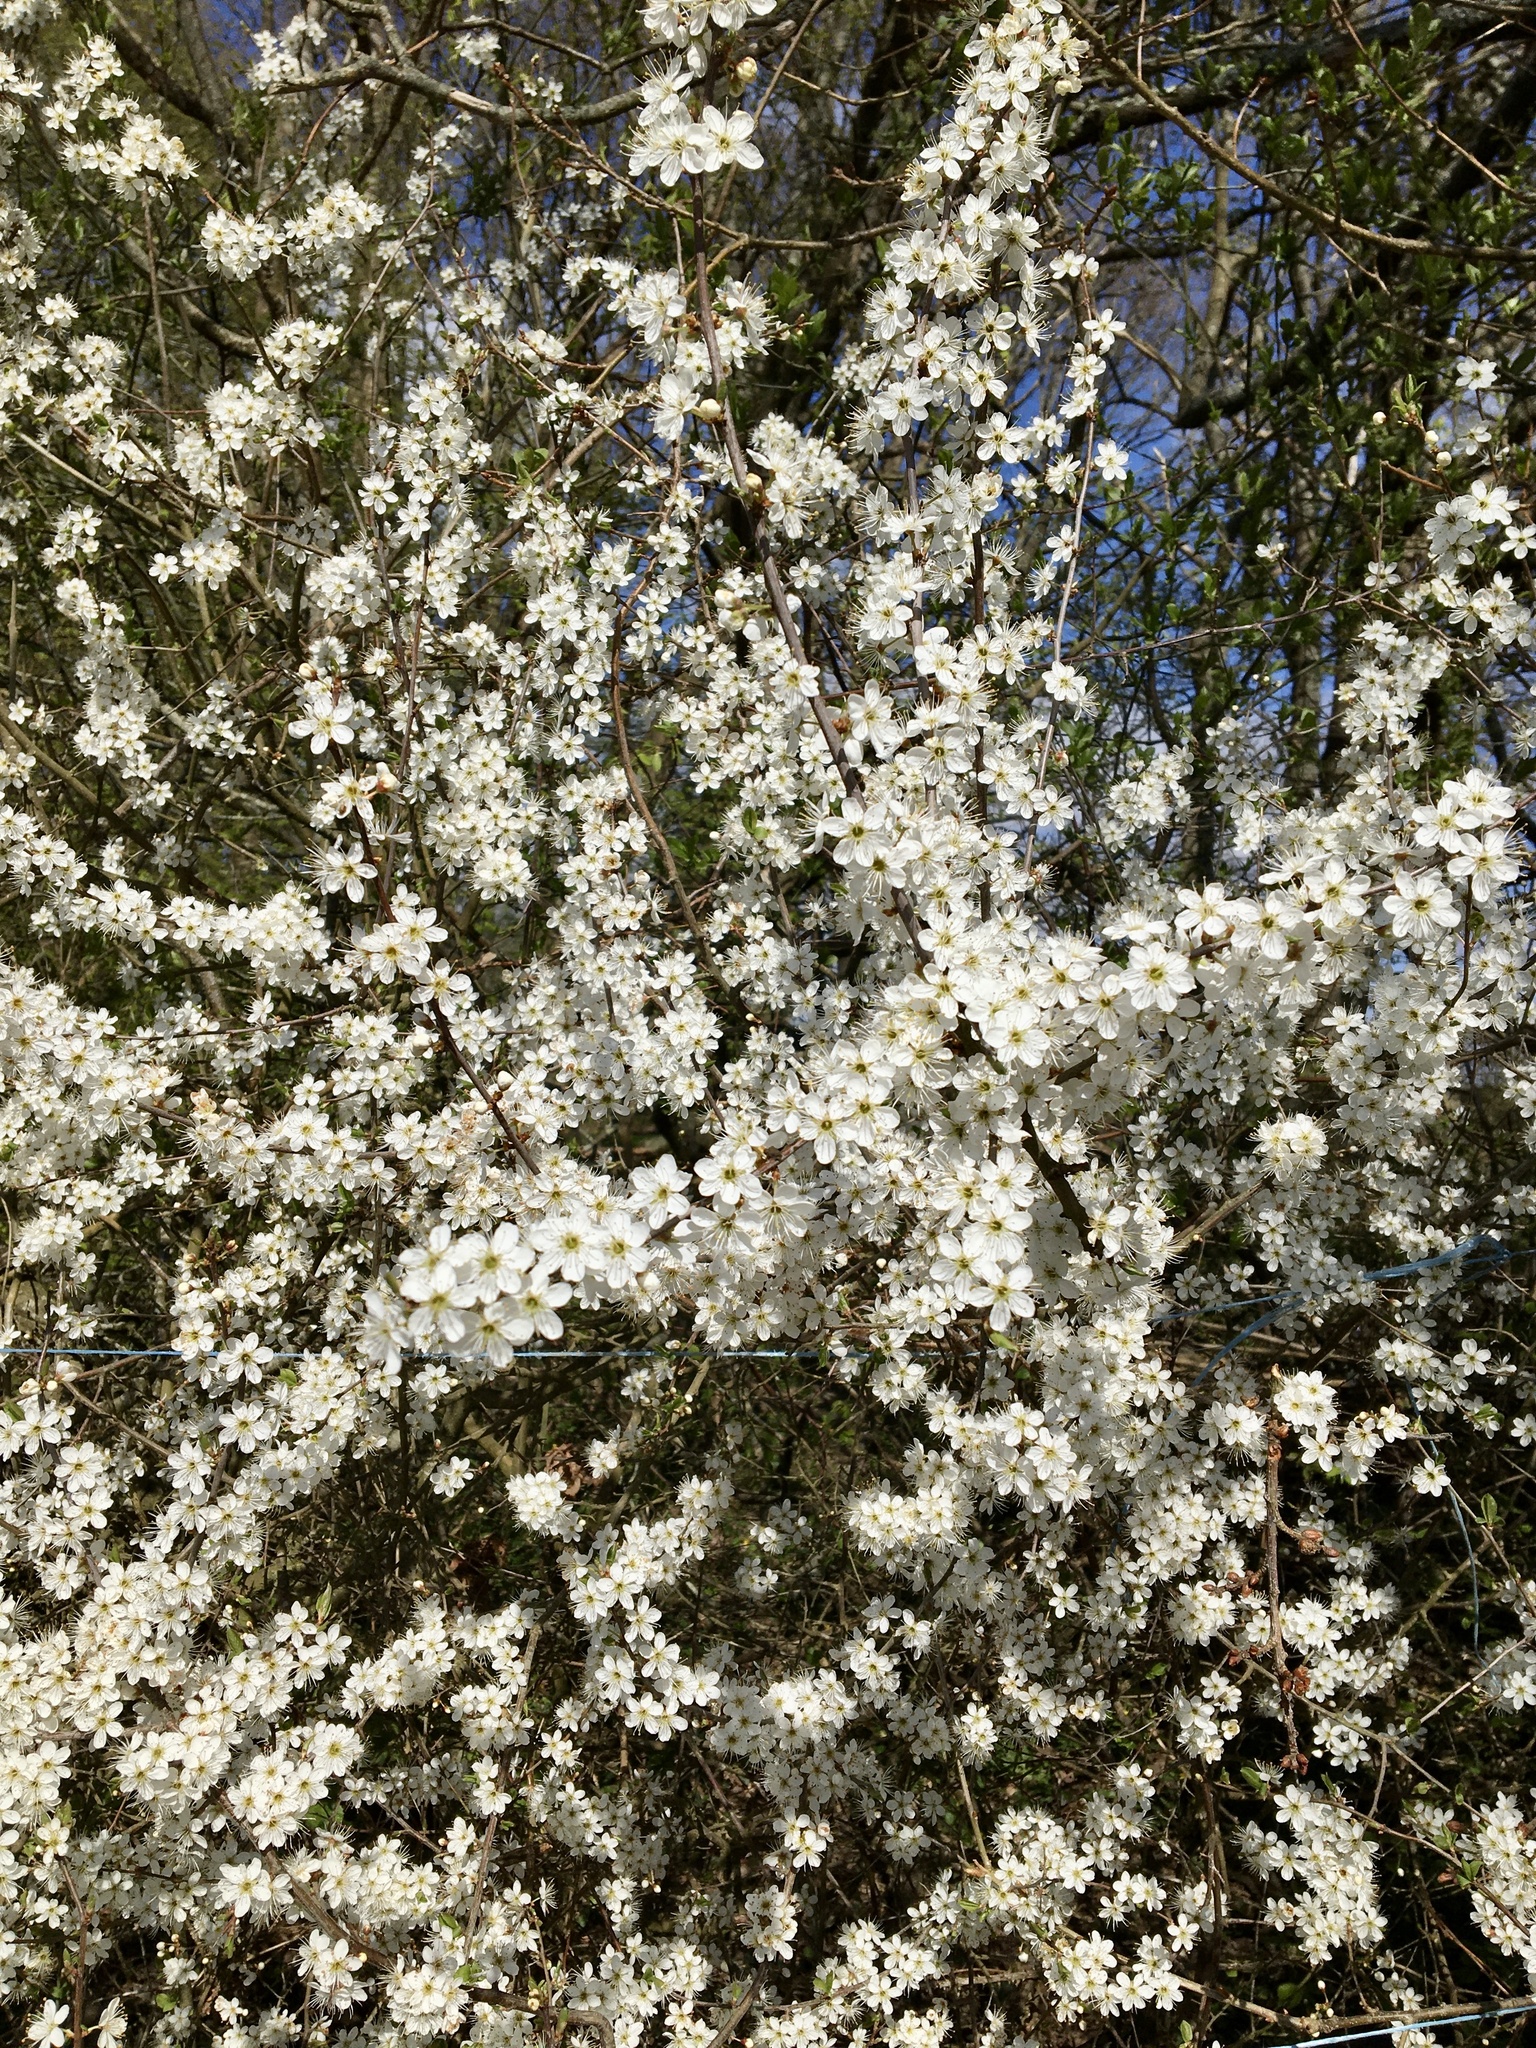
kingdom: Plantae
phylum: Tracheophyta
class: Magnoliopsida
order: Rosales
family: Rosaceae
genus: Prunus
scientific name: Prunus spinosa
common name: Blackthorn
